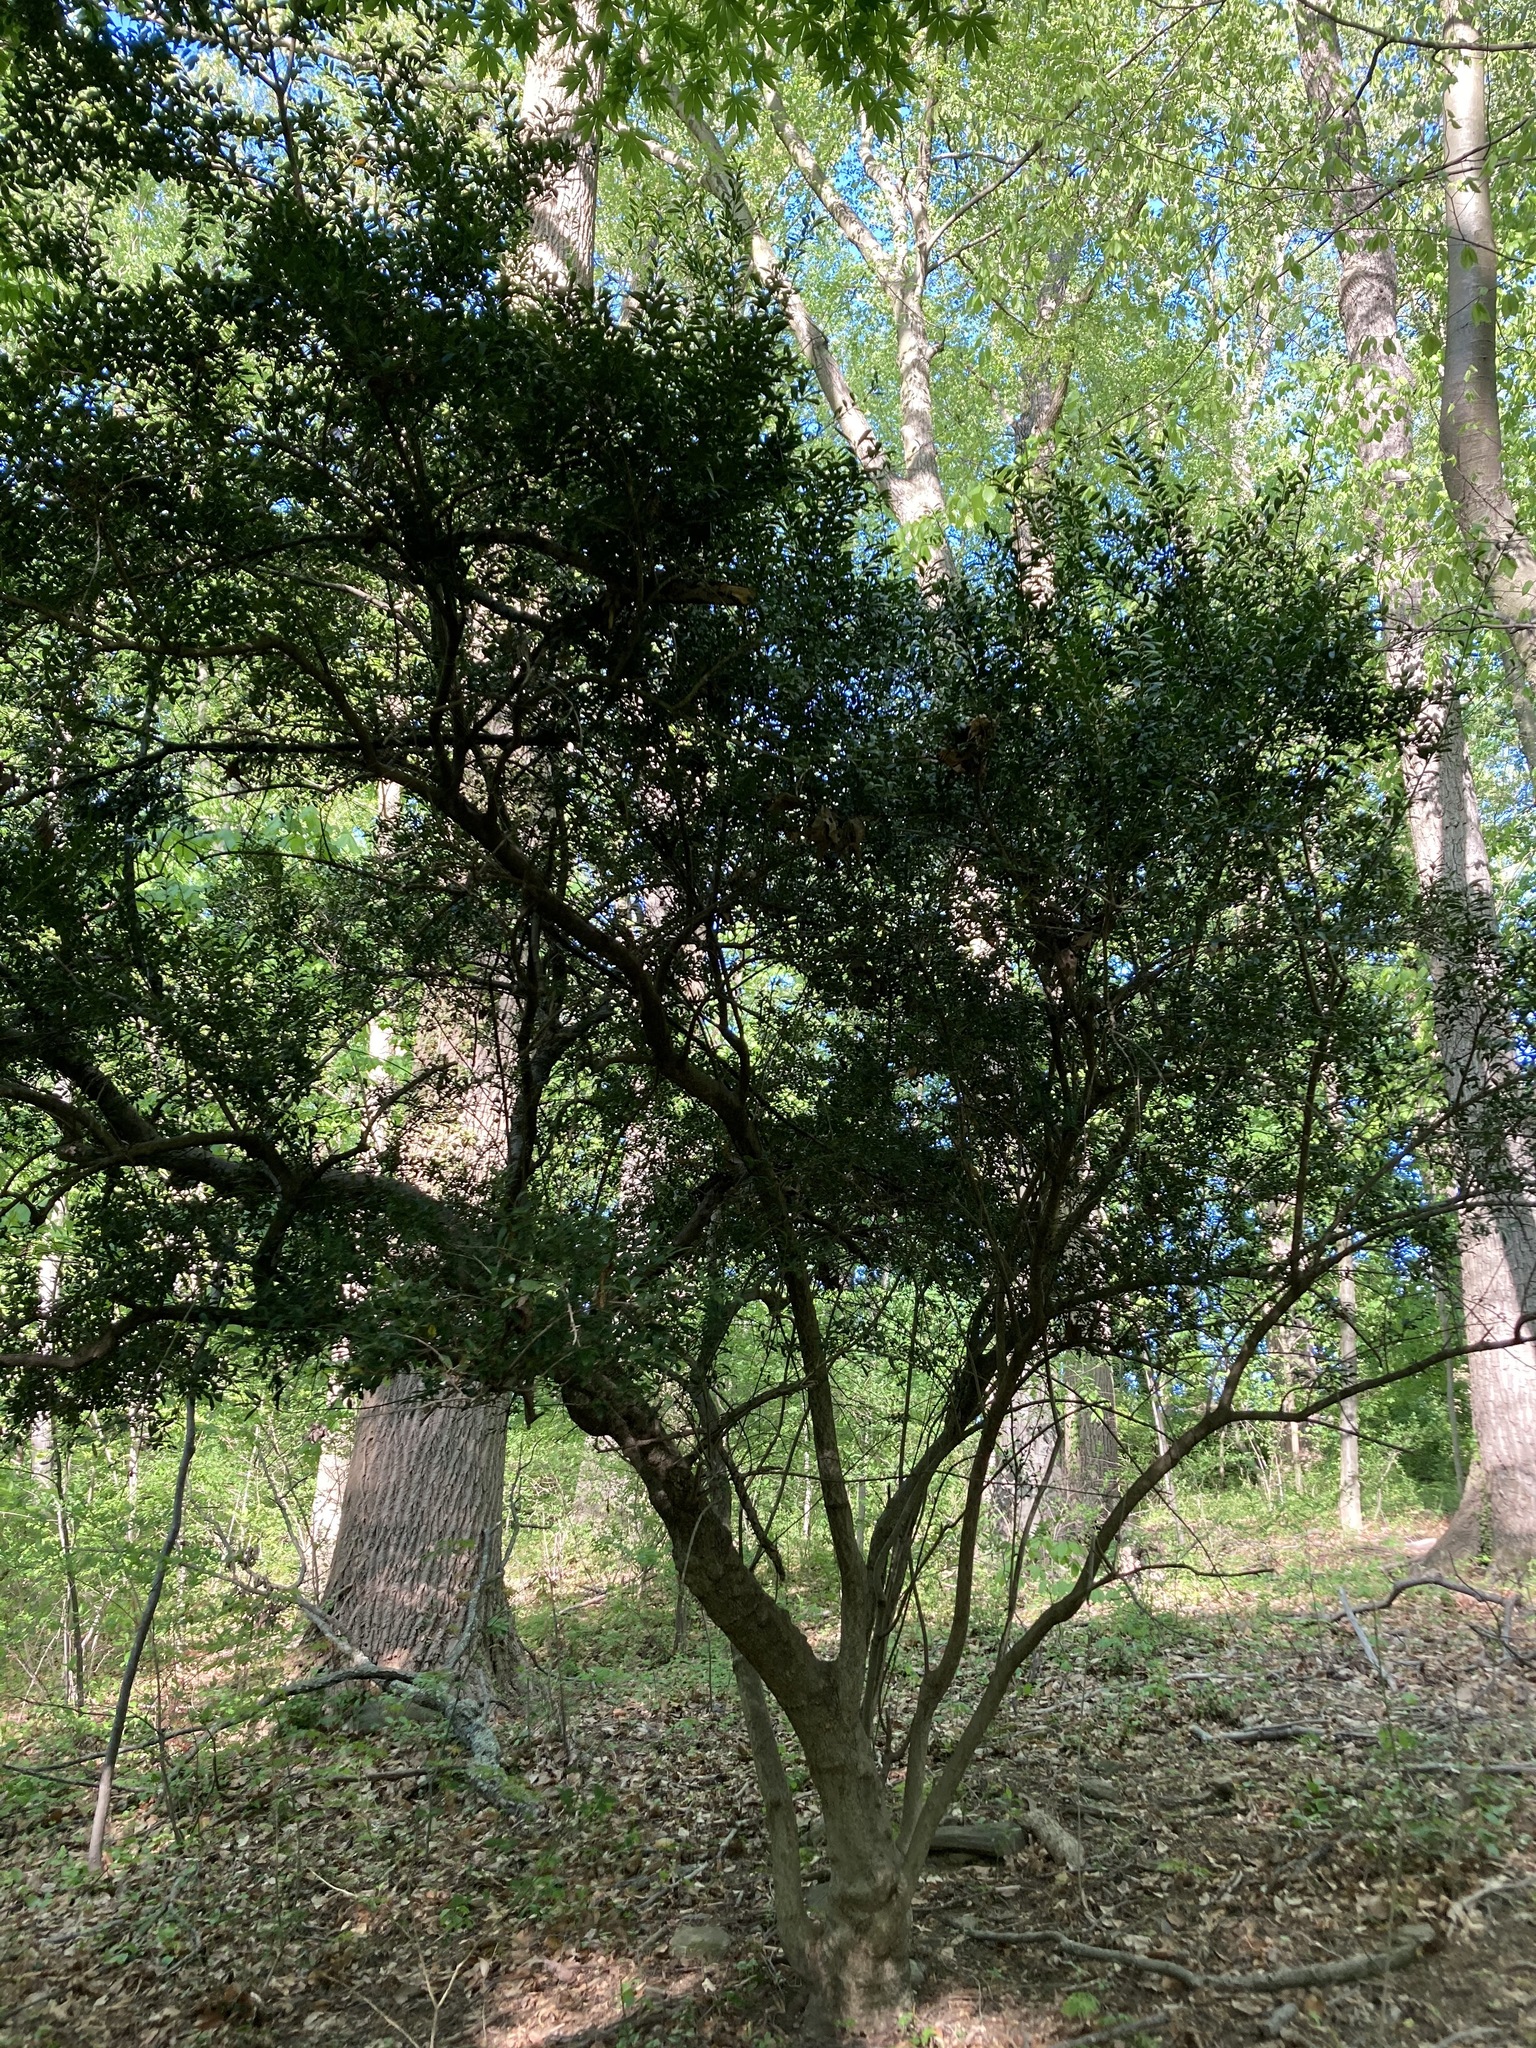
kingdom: Plantae
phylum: Tracheophyta
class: Magnoliopsida
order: Aquifoliales
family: Aquifoliaceae
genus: Ilex
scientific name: Ilex crenata
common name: Japanese holly
